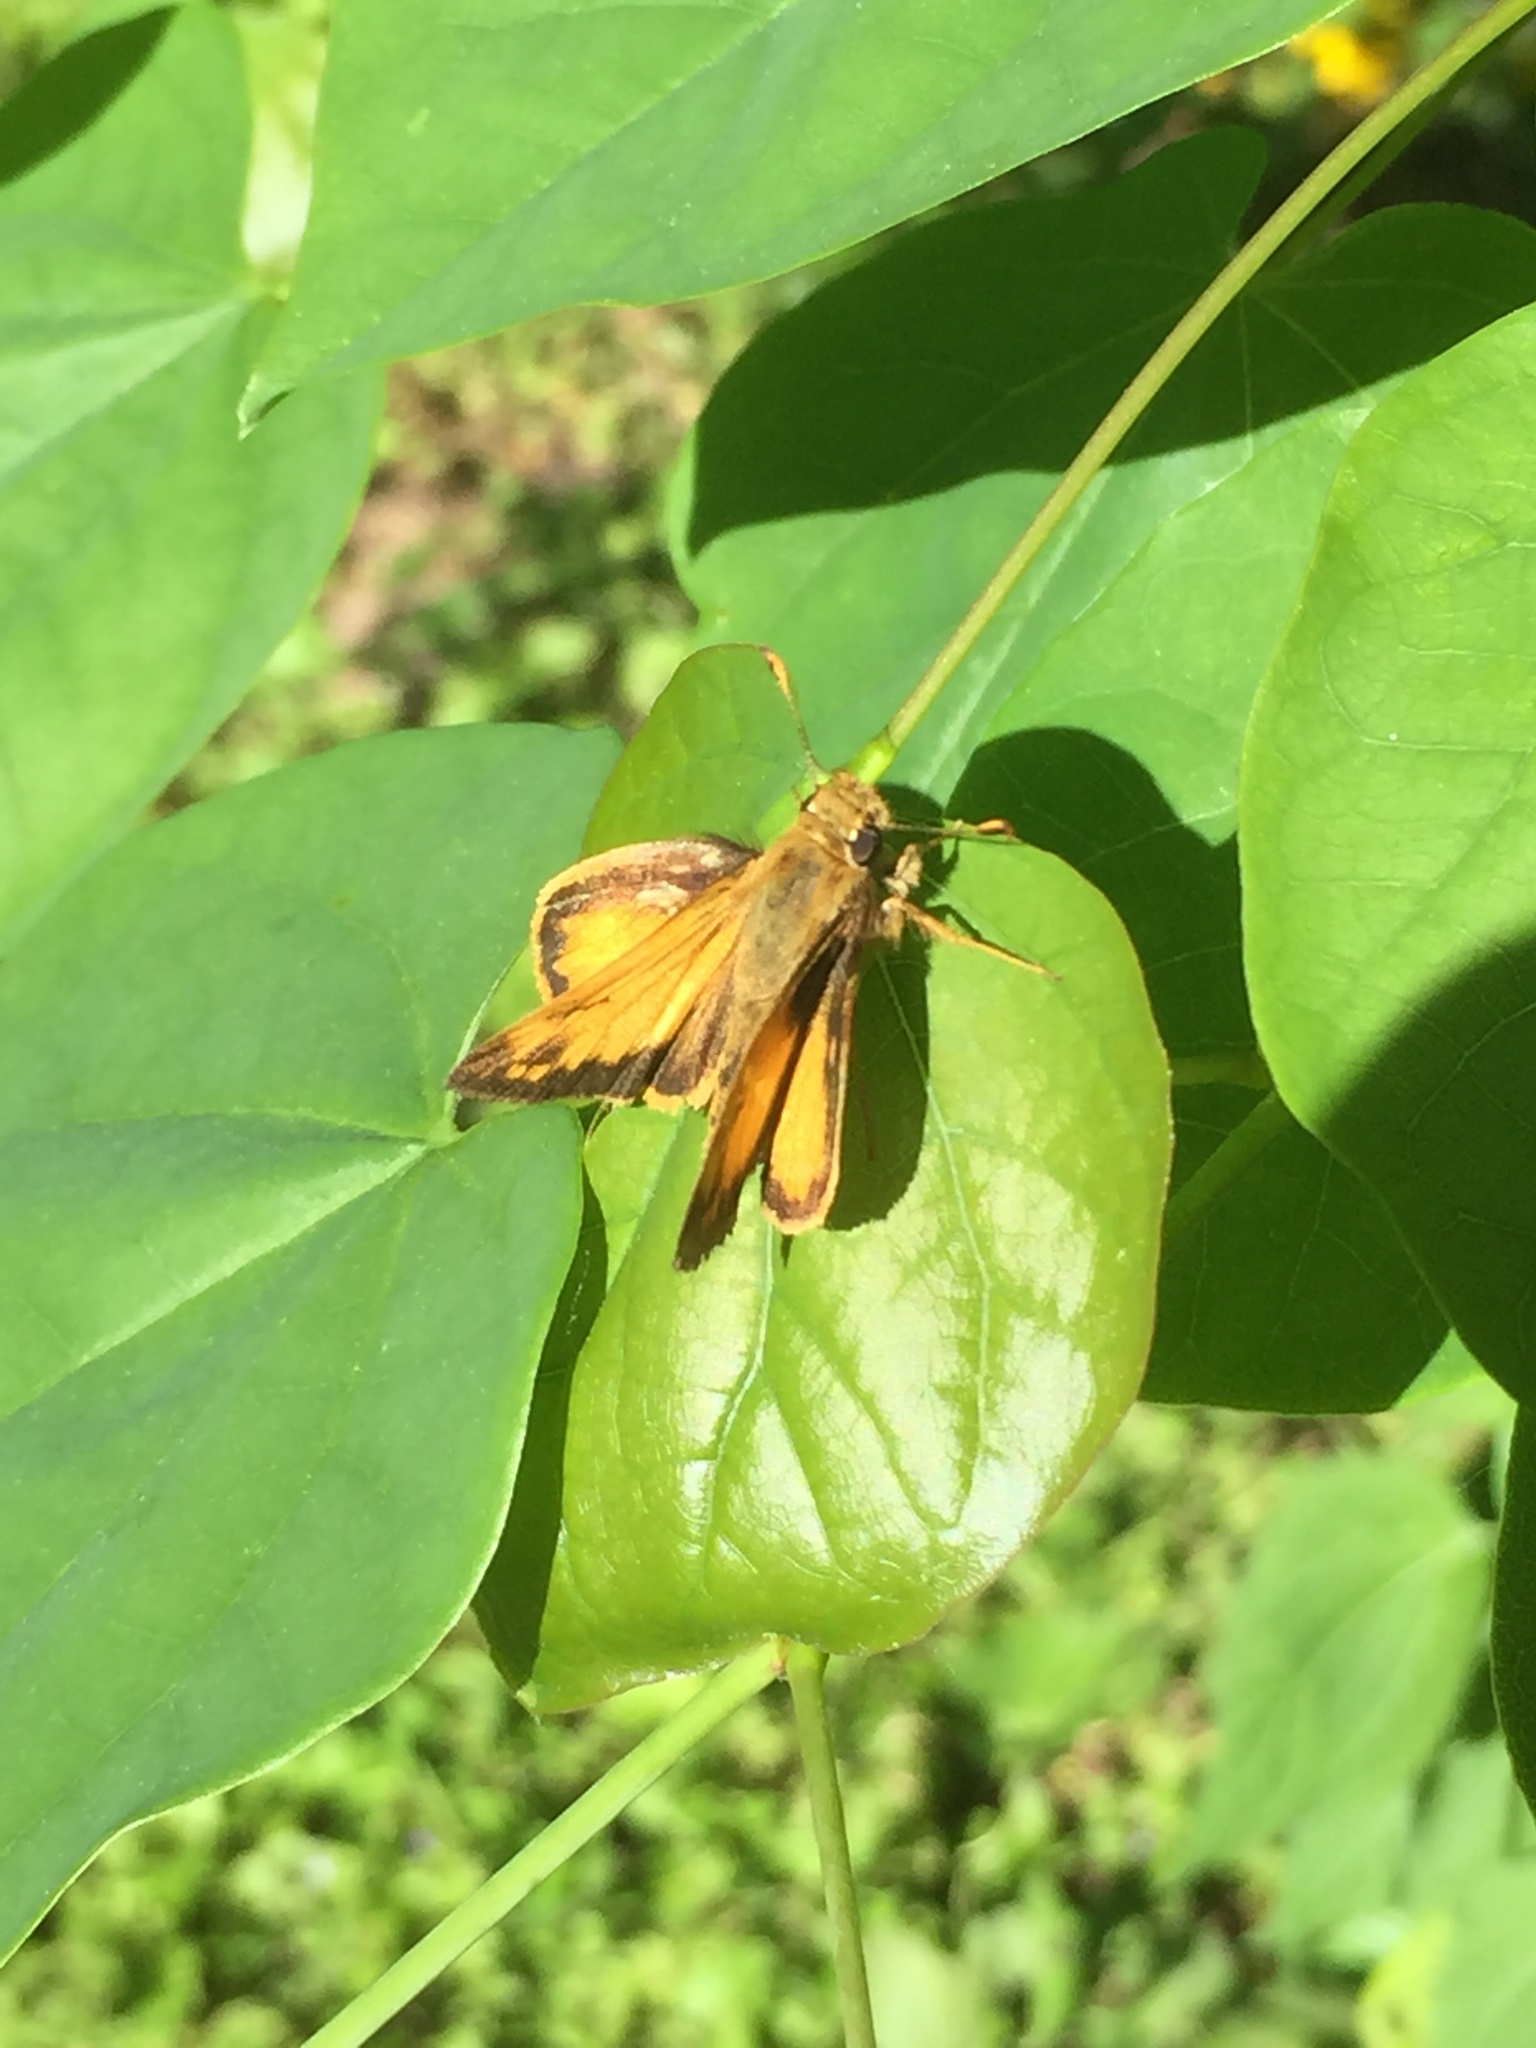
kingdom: Animalia
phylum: Arthropoda
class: Insecta
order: Lepidoptera
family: Hesperiidae
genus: Lon
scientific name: Lon zabulon
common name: Zabulon skipper
